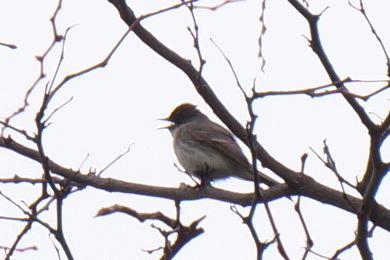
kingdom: Animalia
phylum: Chordata
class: Aves
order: Passeriformes
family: Tyrannidae
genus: Sayornis
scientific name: Sayornis phoebe
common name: Eastern phoebe
